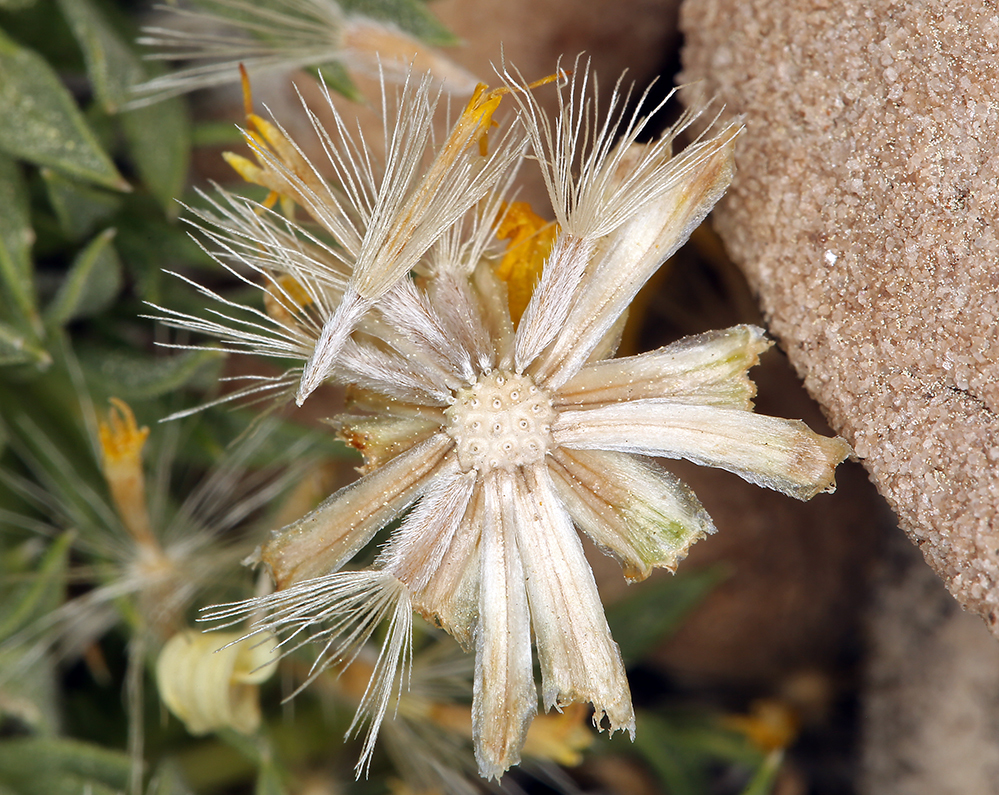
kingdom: Plantae
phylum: Tracheophyta
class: Magnoliopsida
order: Asterales
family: Asteraceae
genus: Stenotus
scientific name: Stenotus acaulis
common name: Stemless goldenweed
